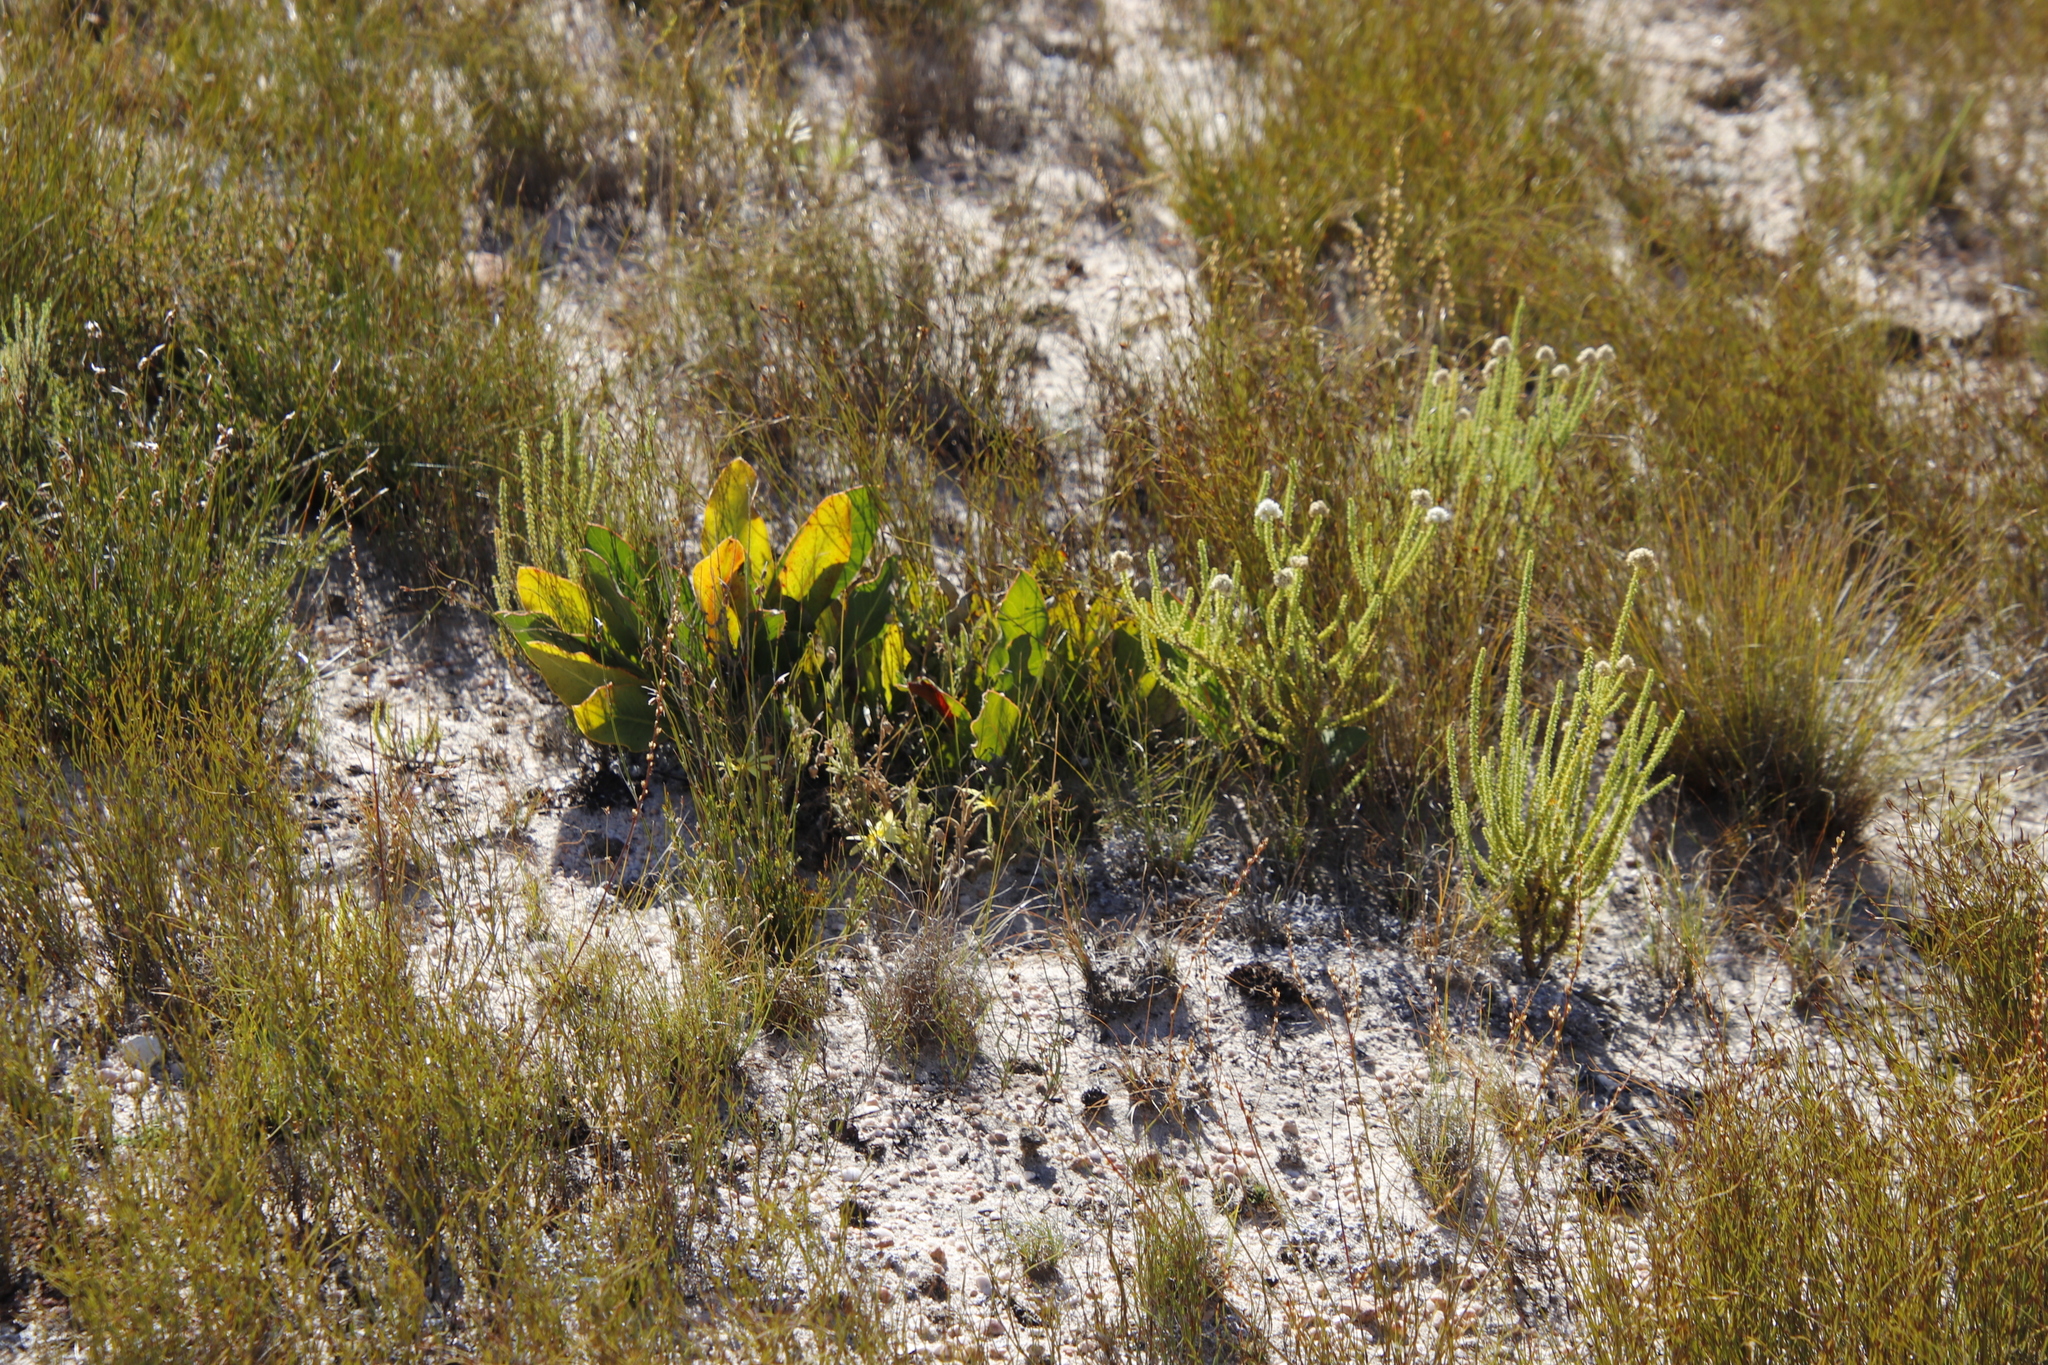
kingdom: Plantae
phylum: Tracheophyta
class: Magnoliopsida
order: Proteales
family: Proteaceae
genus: Protea
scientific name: Protea scolopendriifolia
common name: Harts-tongue-fern sugarbush
